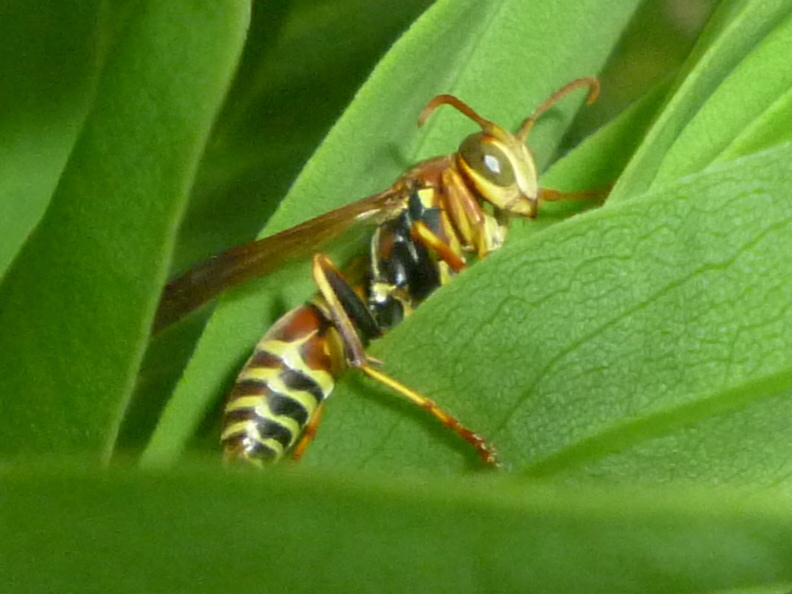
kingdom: Animalia
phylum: Arthropoda
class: Insecta
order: Hymenoptera
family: Eumenidae
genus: Polistes
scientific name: Polistes dorsalis
